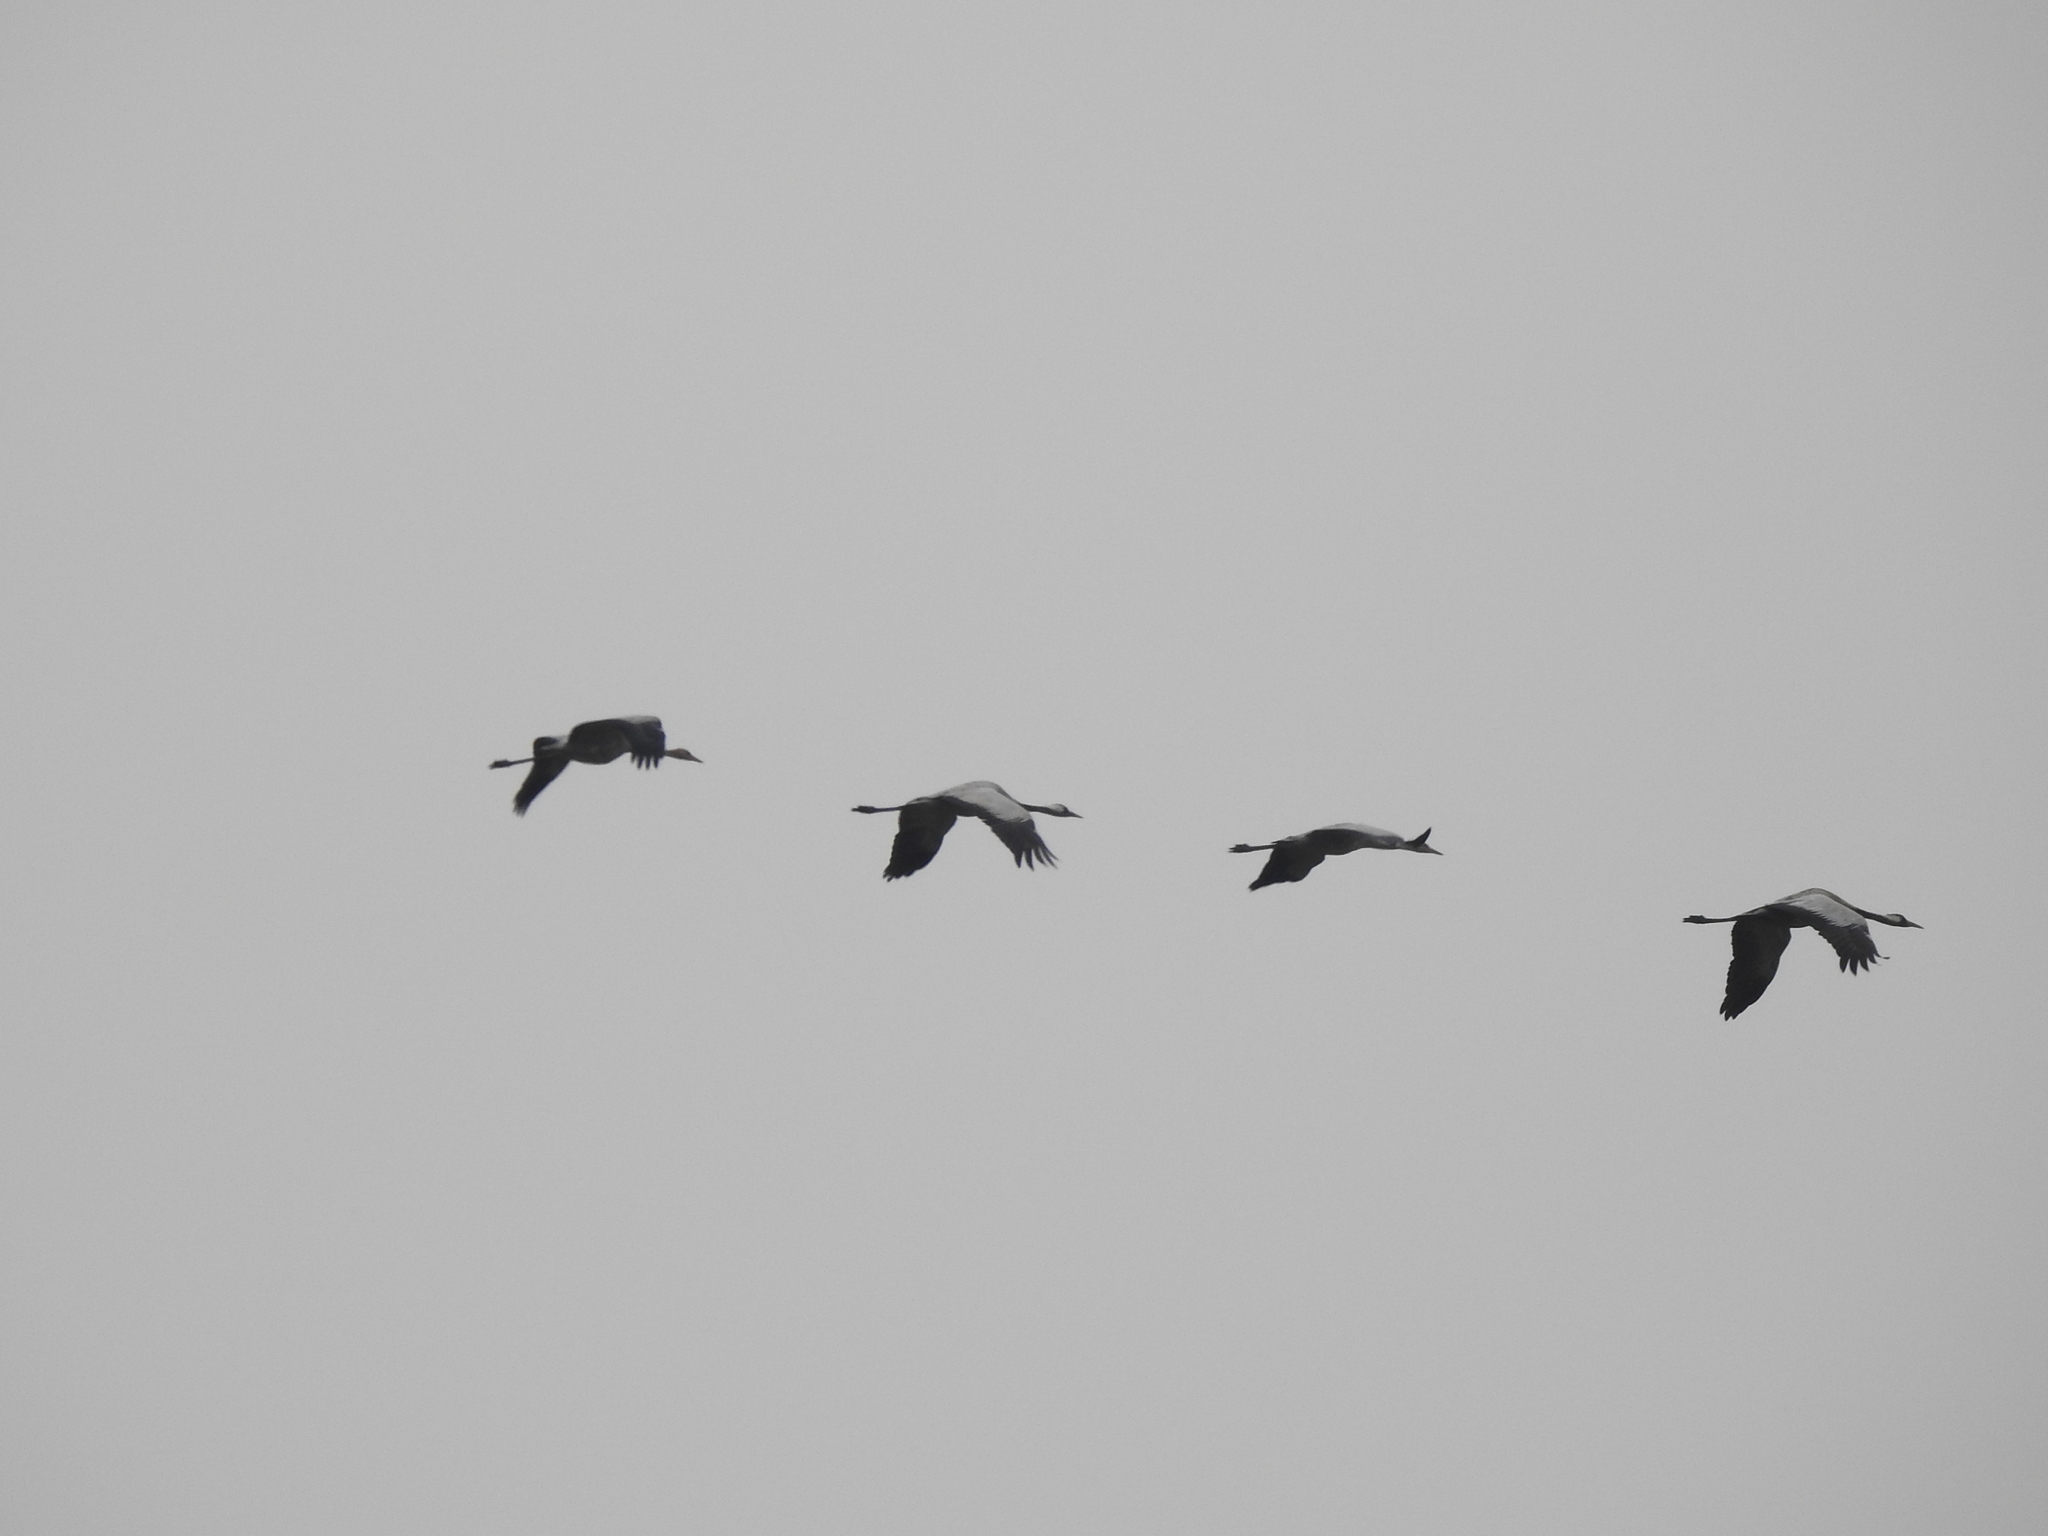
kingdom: Animalia
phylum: Chordata
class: Aves
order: Gruiformes
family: Gruidae
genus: Grus
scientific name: Grus grus
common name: Common crane
